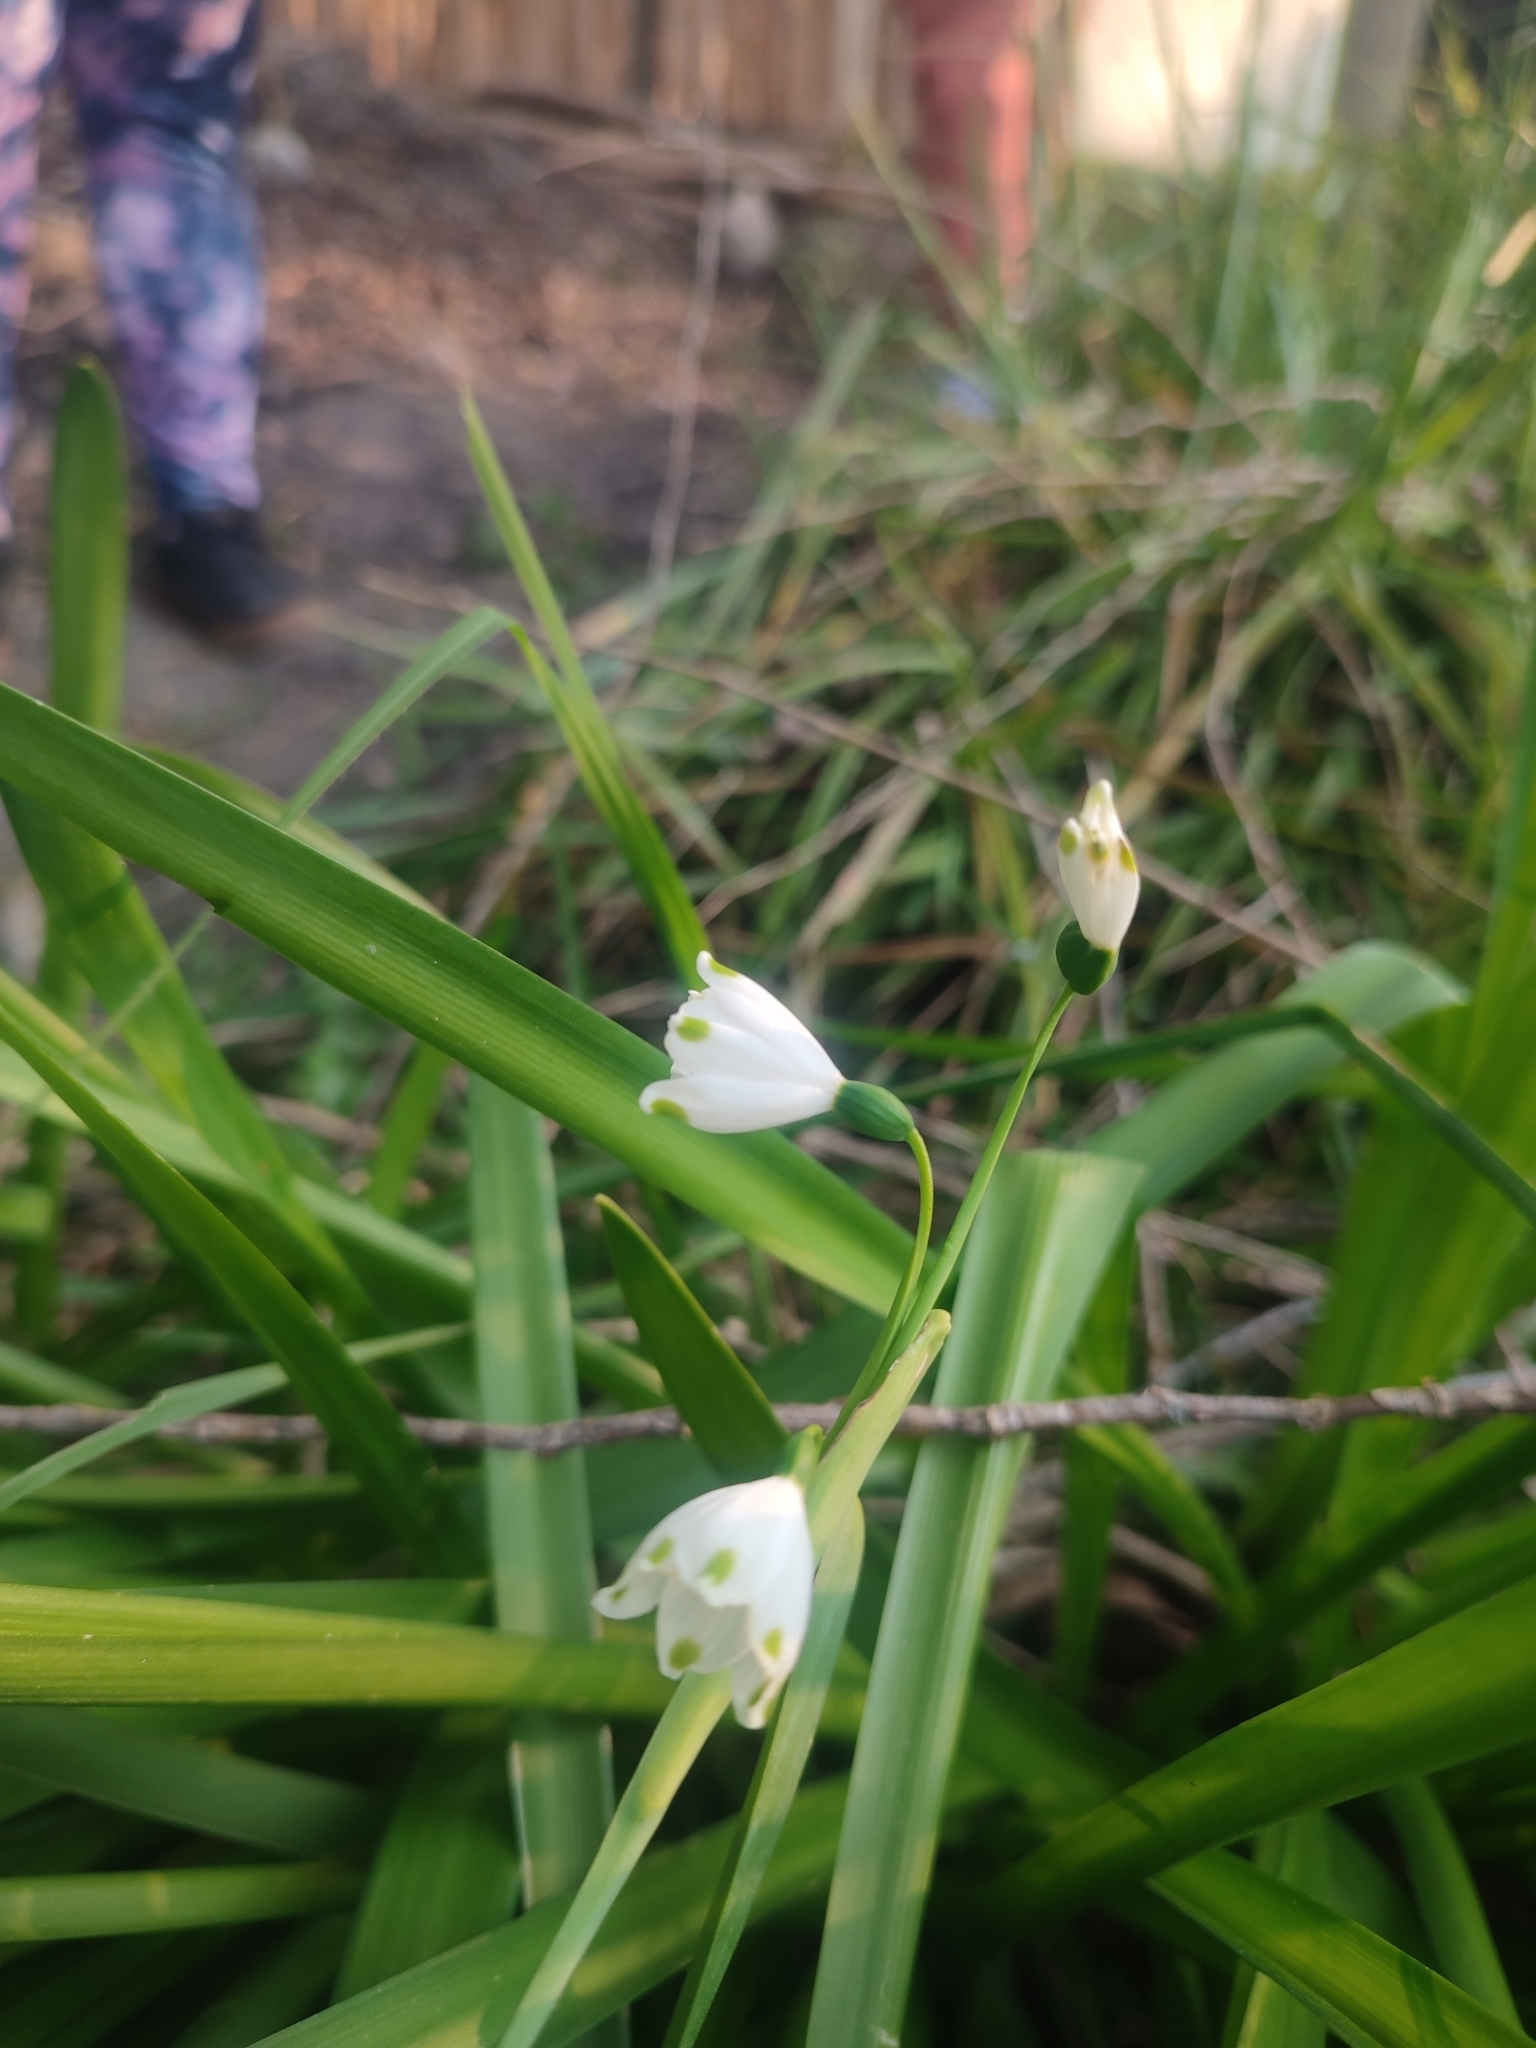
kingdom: Plantae
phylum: Tracheophyta
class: Liliopsida
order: Asparagales
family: Amaryllidaceae
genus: Leucojum
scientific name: Leucojum aestivum
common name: Summer snowflake
